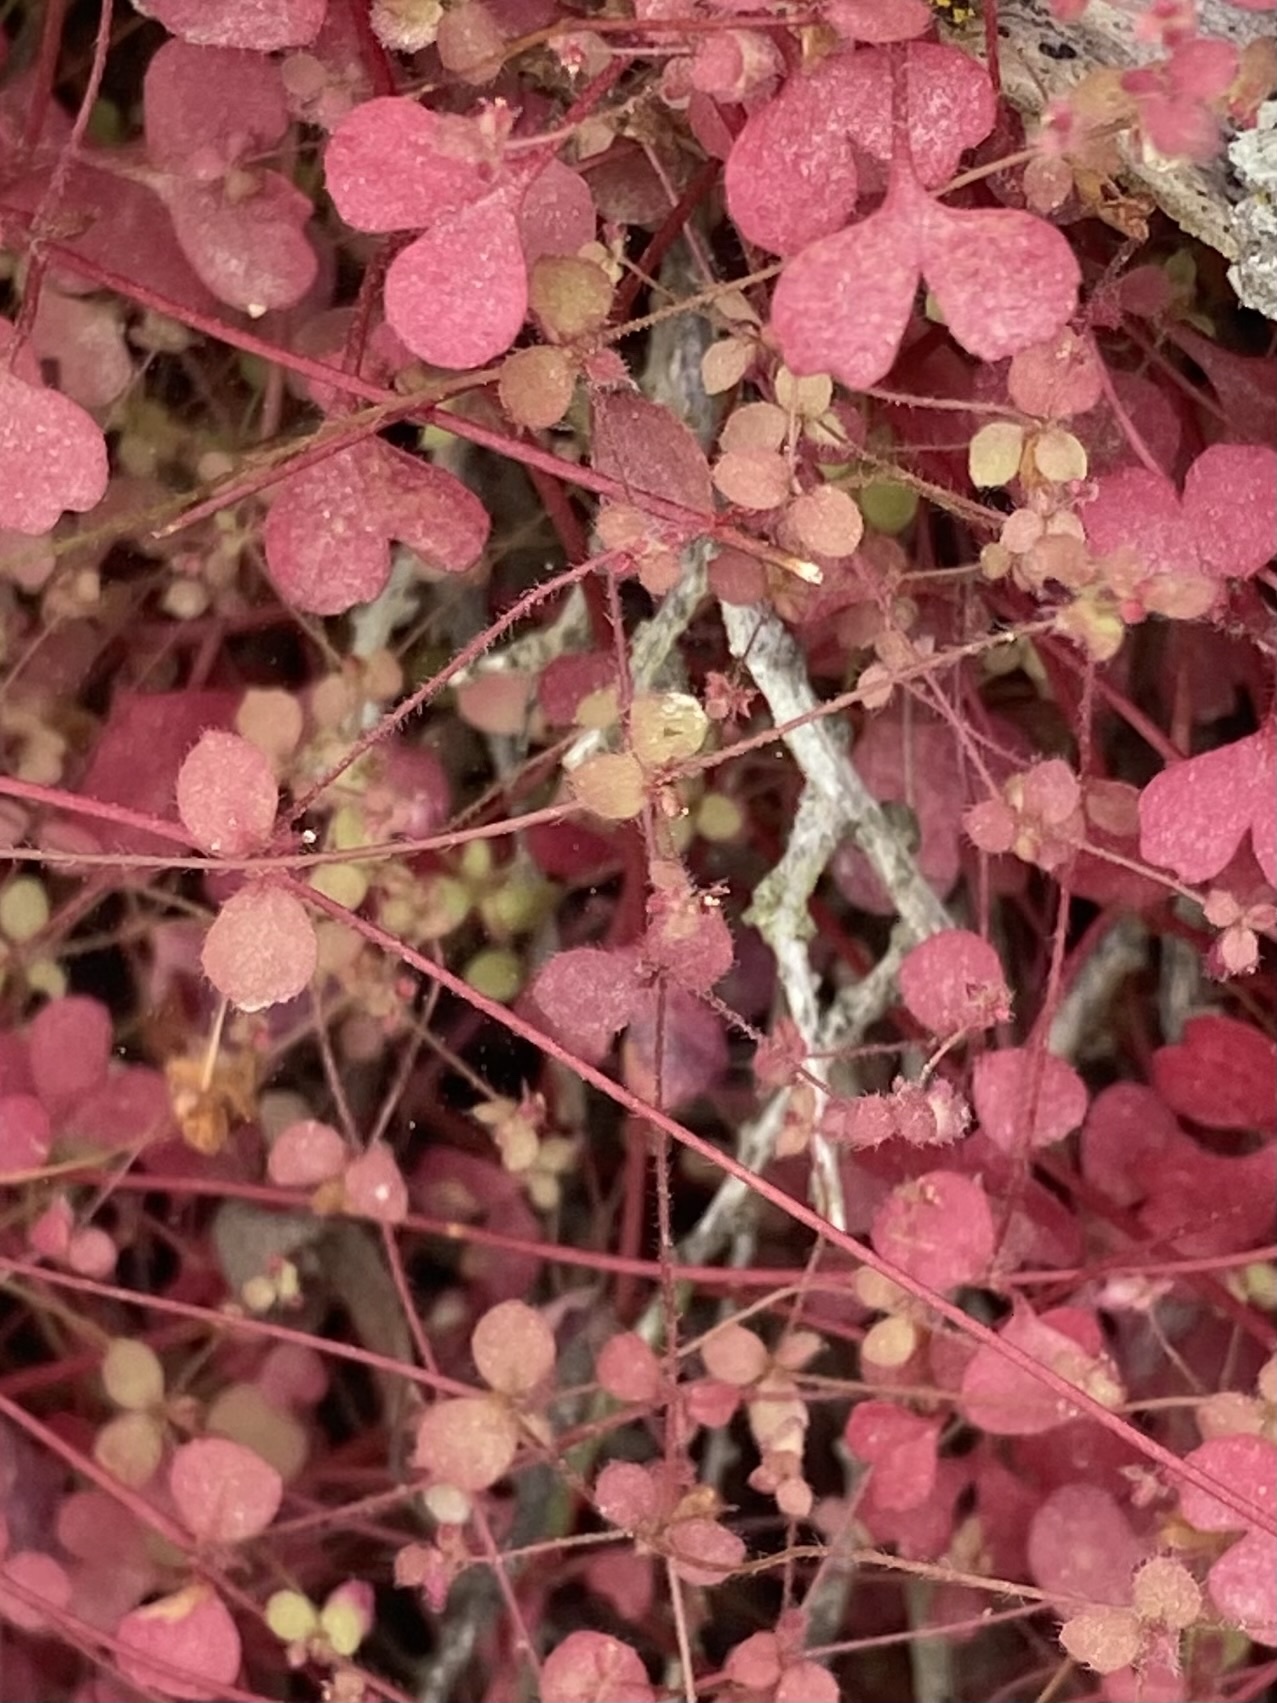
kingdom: Plantae
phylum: Tracheophyta
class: Magnoliopsida
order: Caryophyllales
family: Polygonaceae
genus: Pterostegia
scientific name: Pterostegia drymarioides
